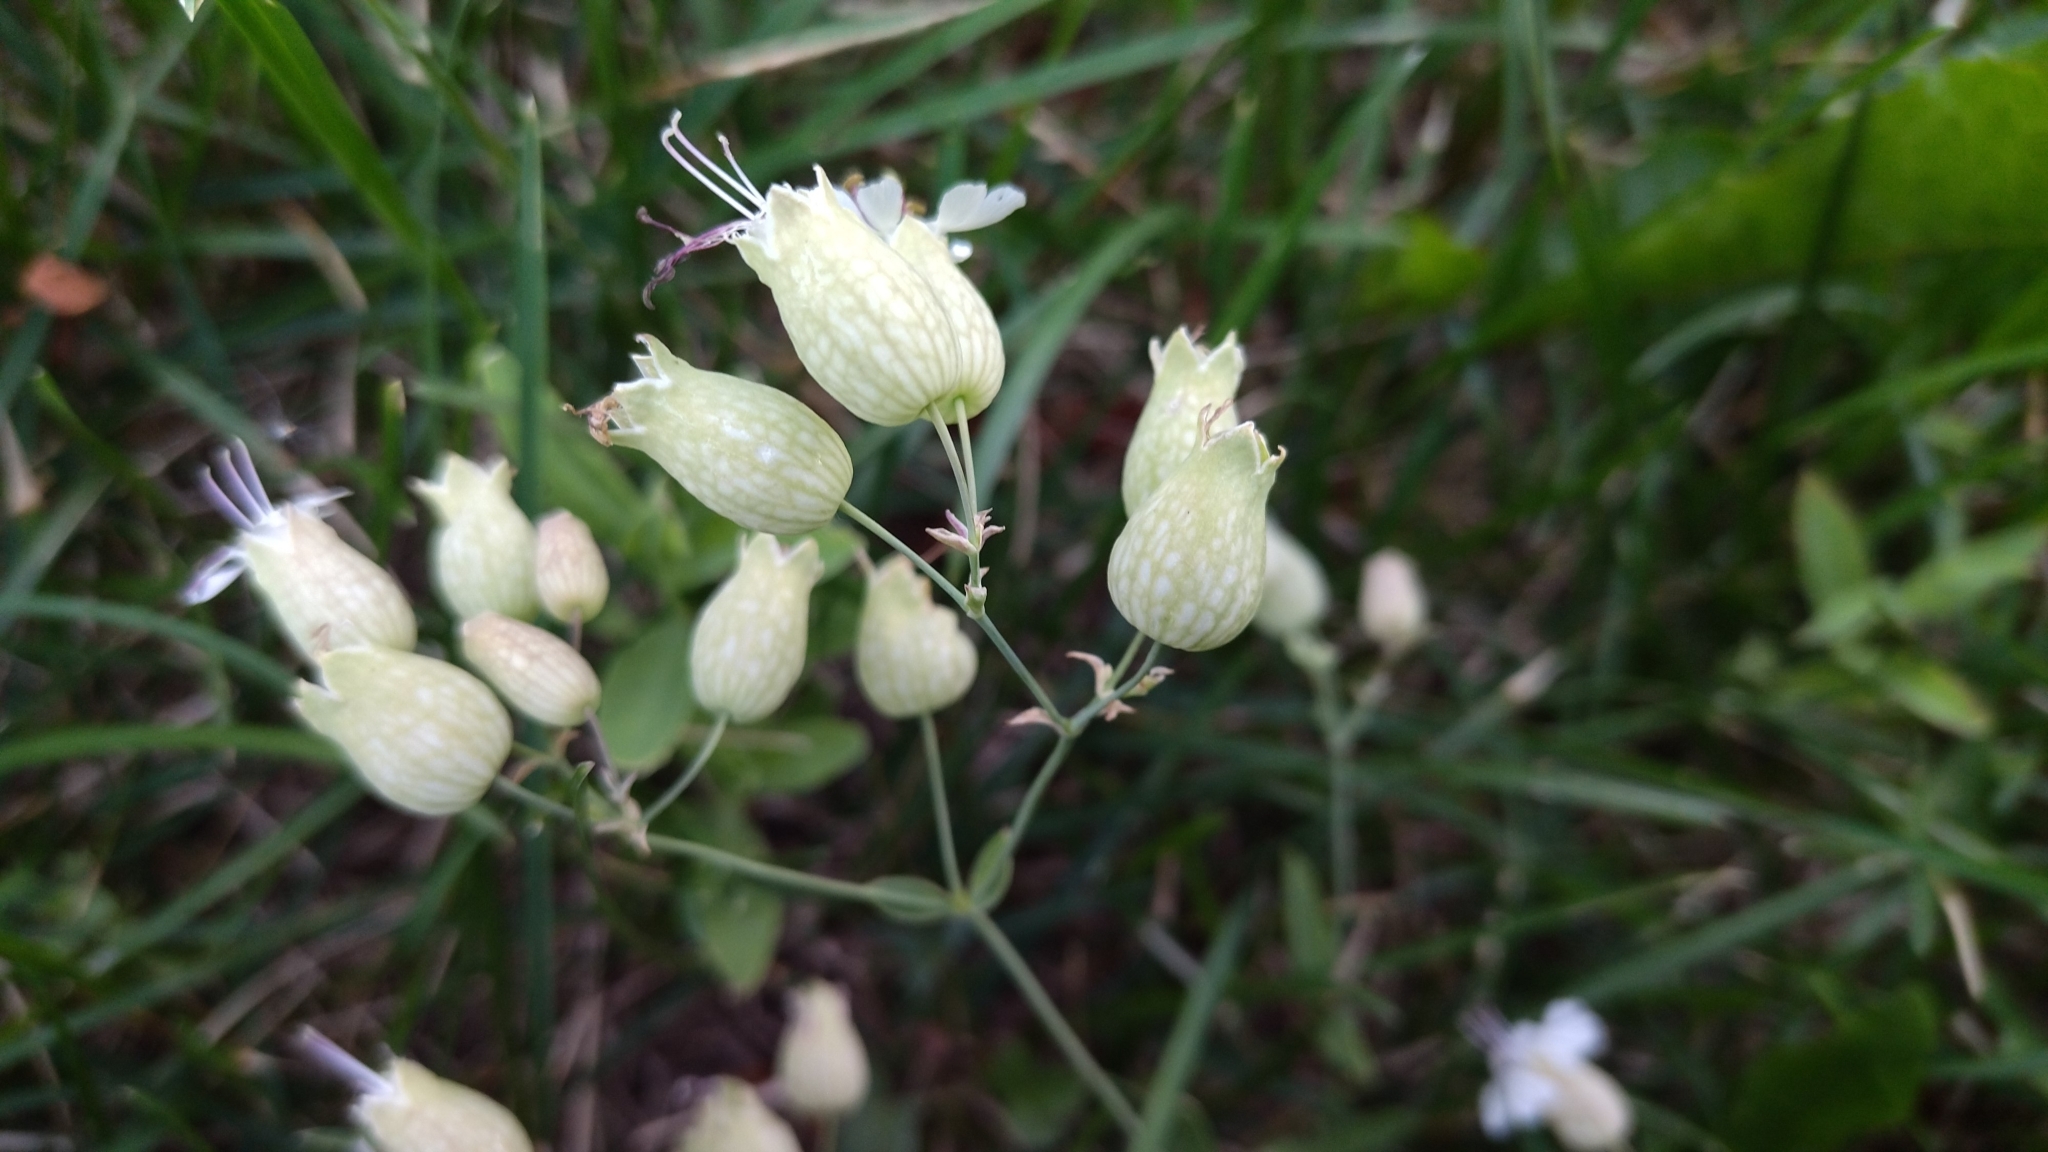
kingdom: Plantae
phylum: Tracheophyta
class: Magnoliopsida
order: Caryophyllales
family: Caryophyllaceae
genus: Silene
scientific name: Silene vulgaris
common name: Bladder campion
